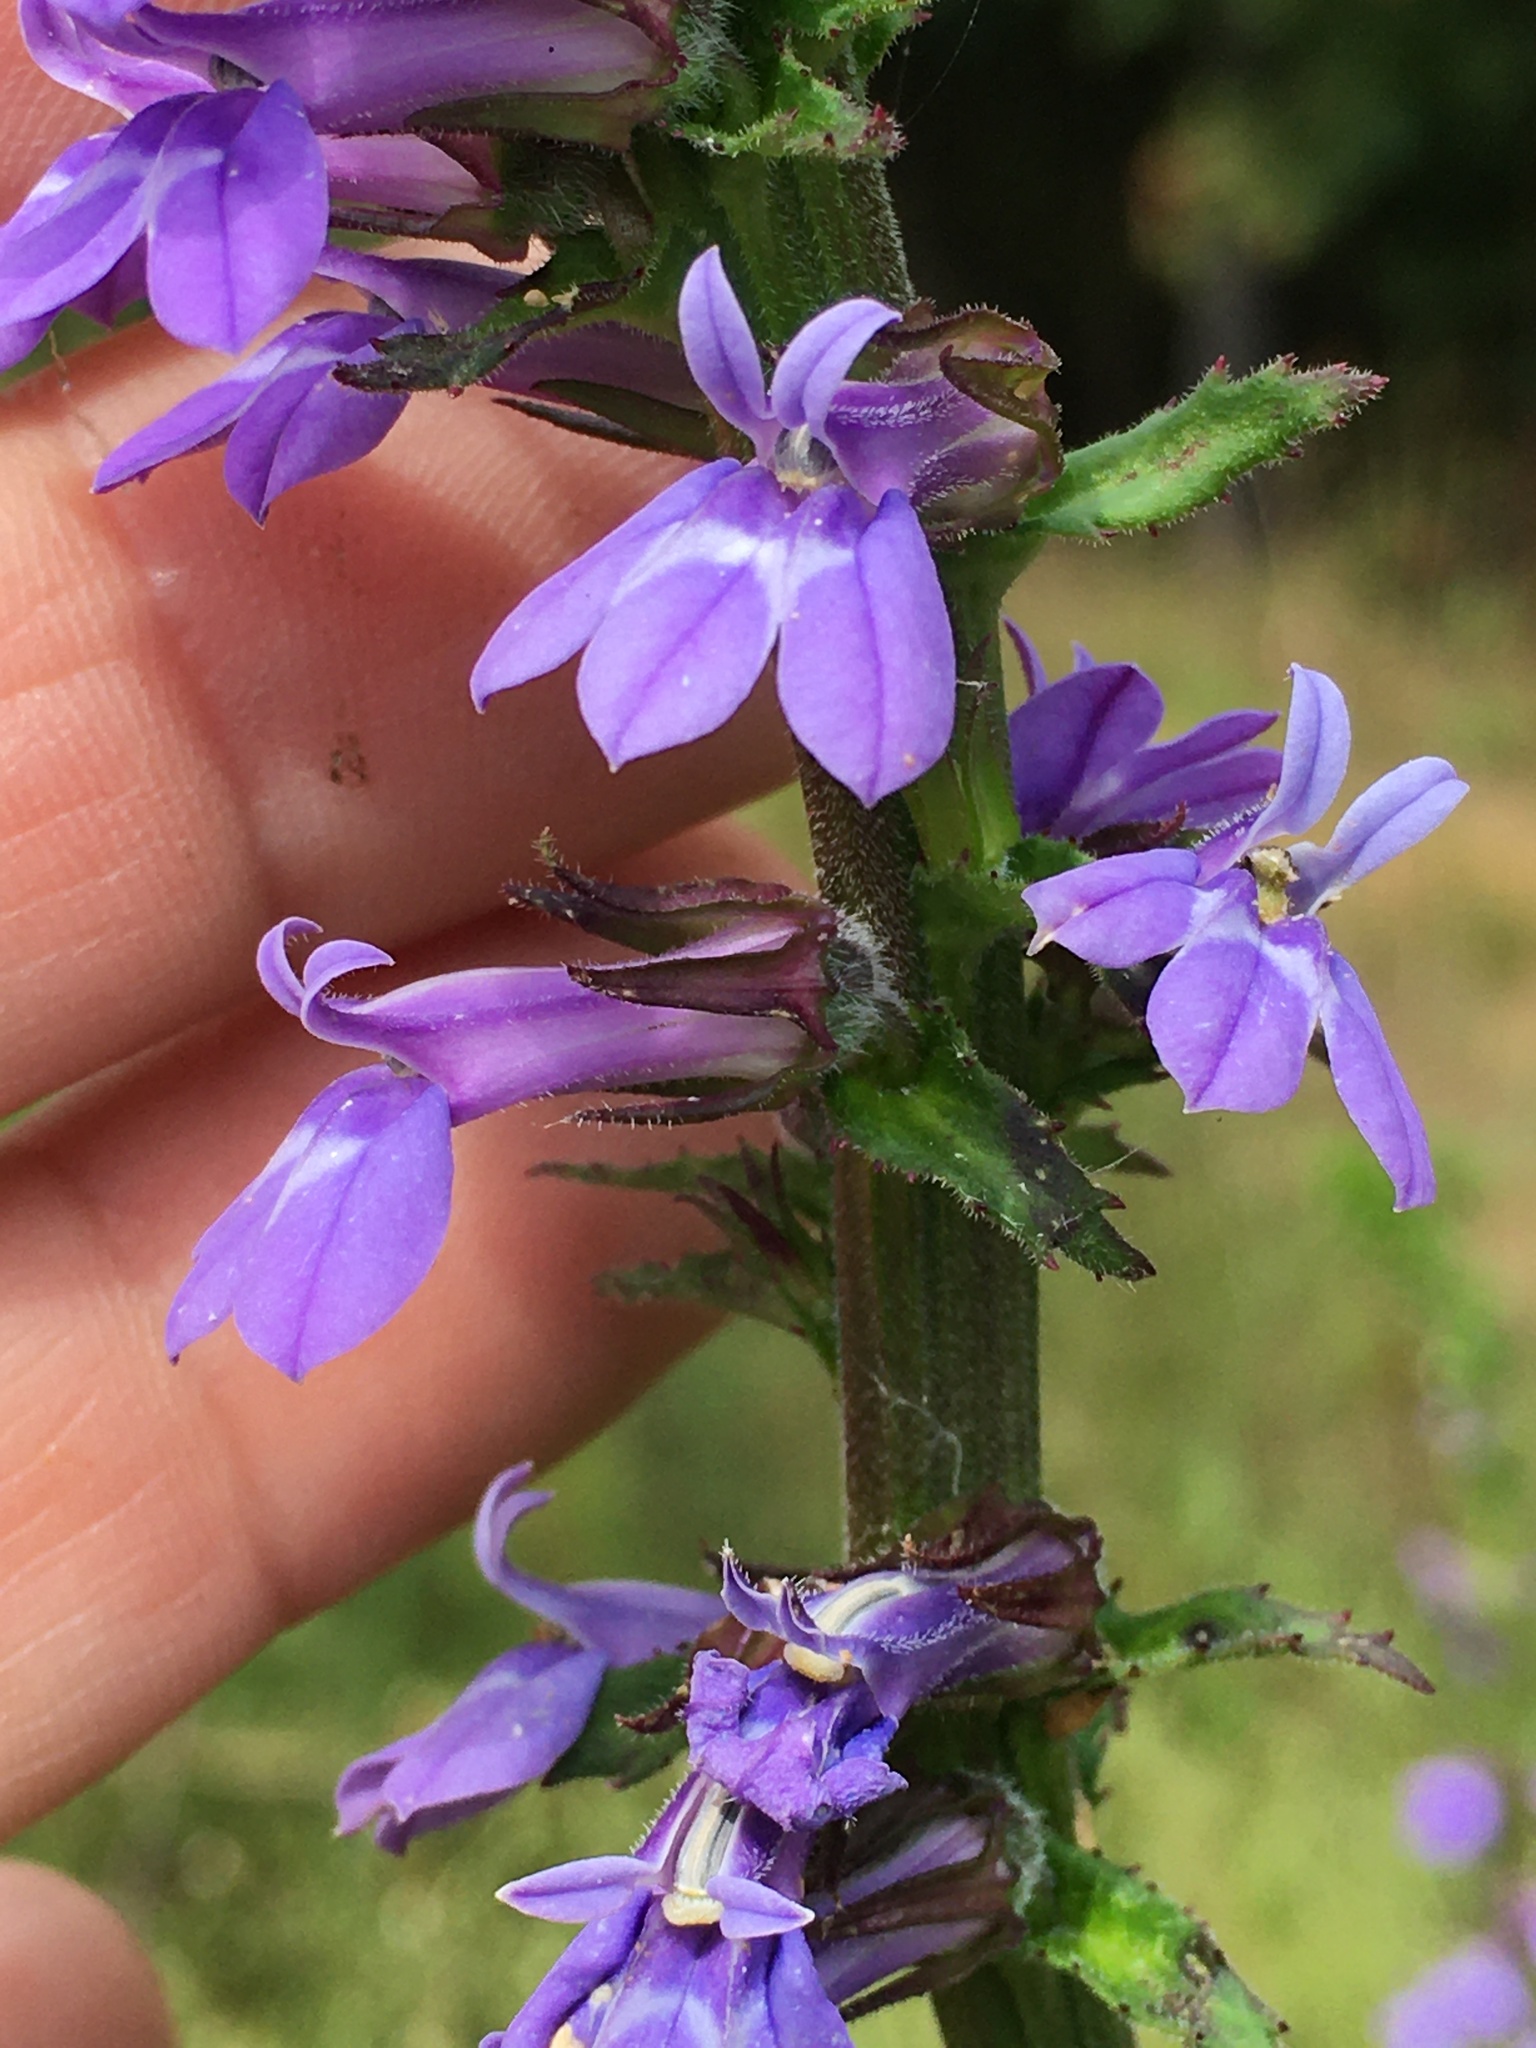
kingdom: Plantae
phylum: Tracheophyta
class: Magnoliopsida
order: Asterales
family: Campanulaceae
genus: Lobelia
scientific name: Lobelia puberula
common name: Purple dewdrop
